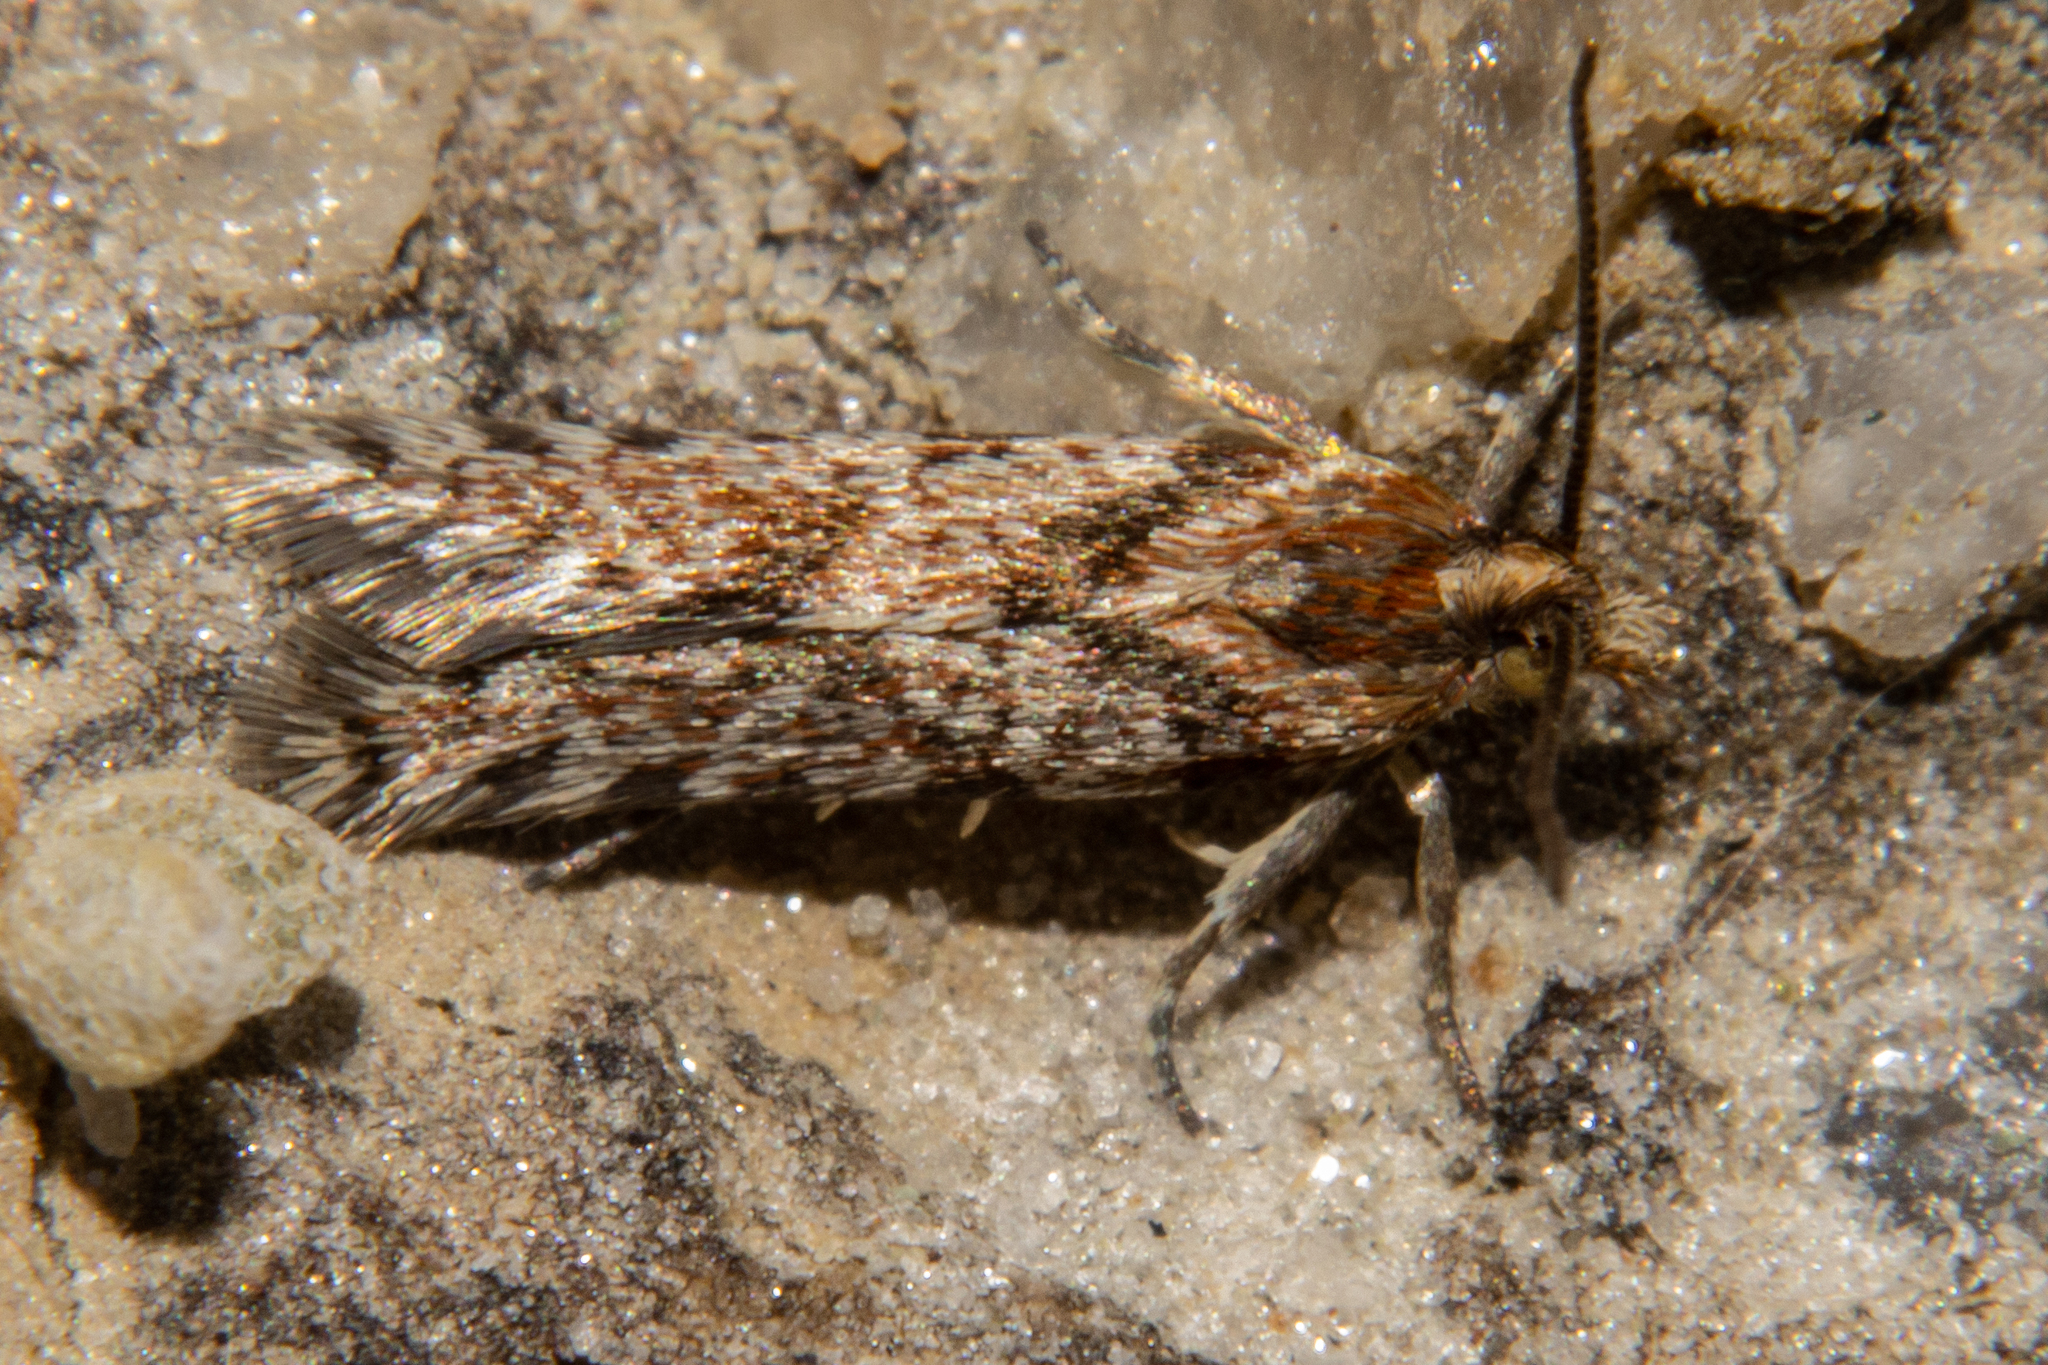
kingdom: Animalia
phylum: Arthropoda
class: Insecta
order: Lepidoptera
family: Tortricidae
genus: Eurythecta
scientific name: Eurythecta zelaea
